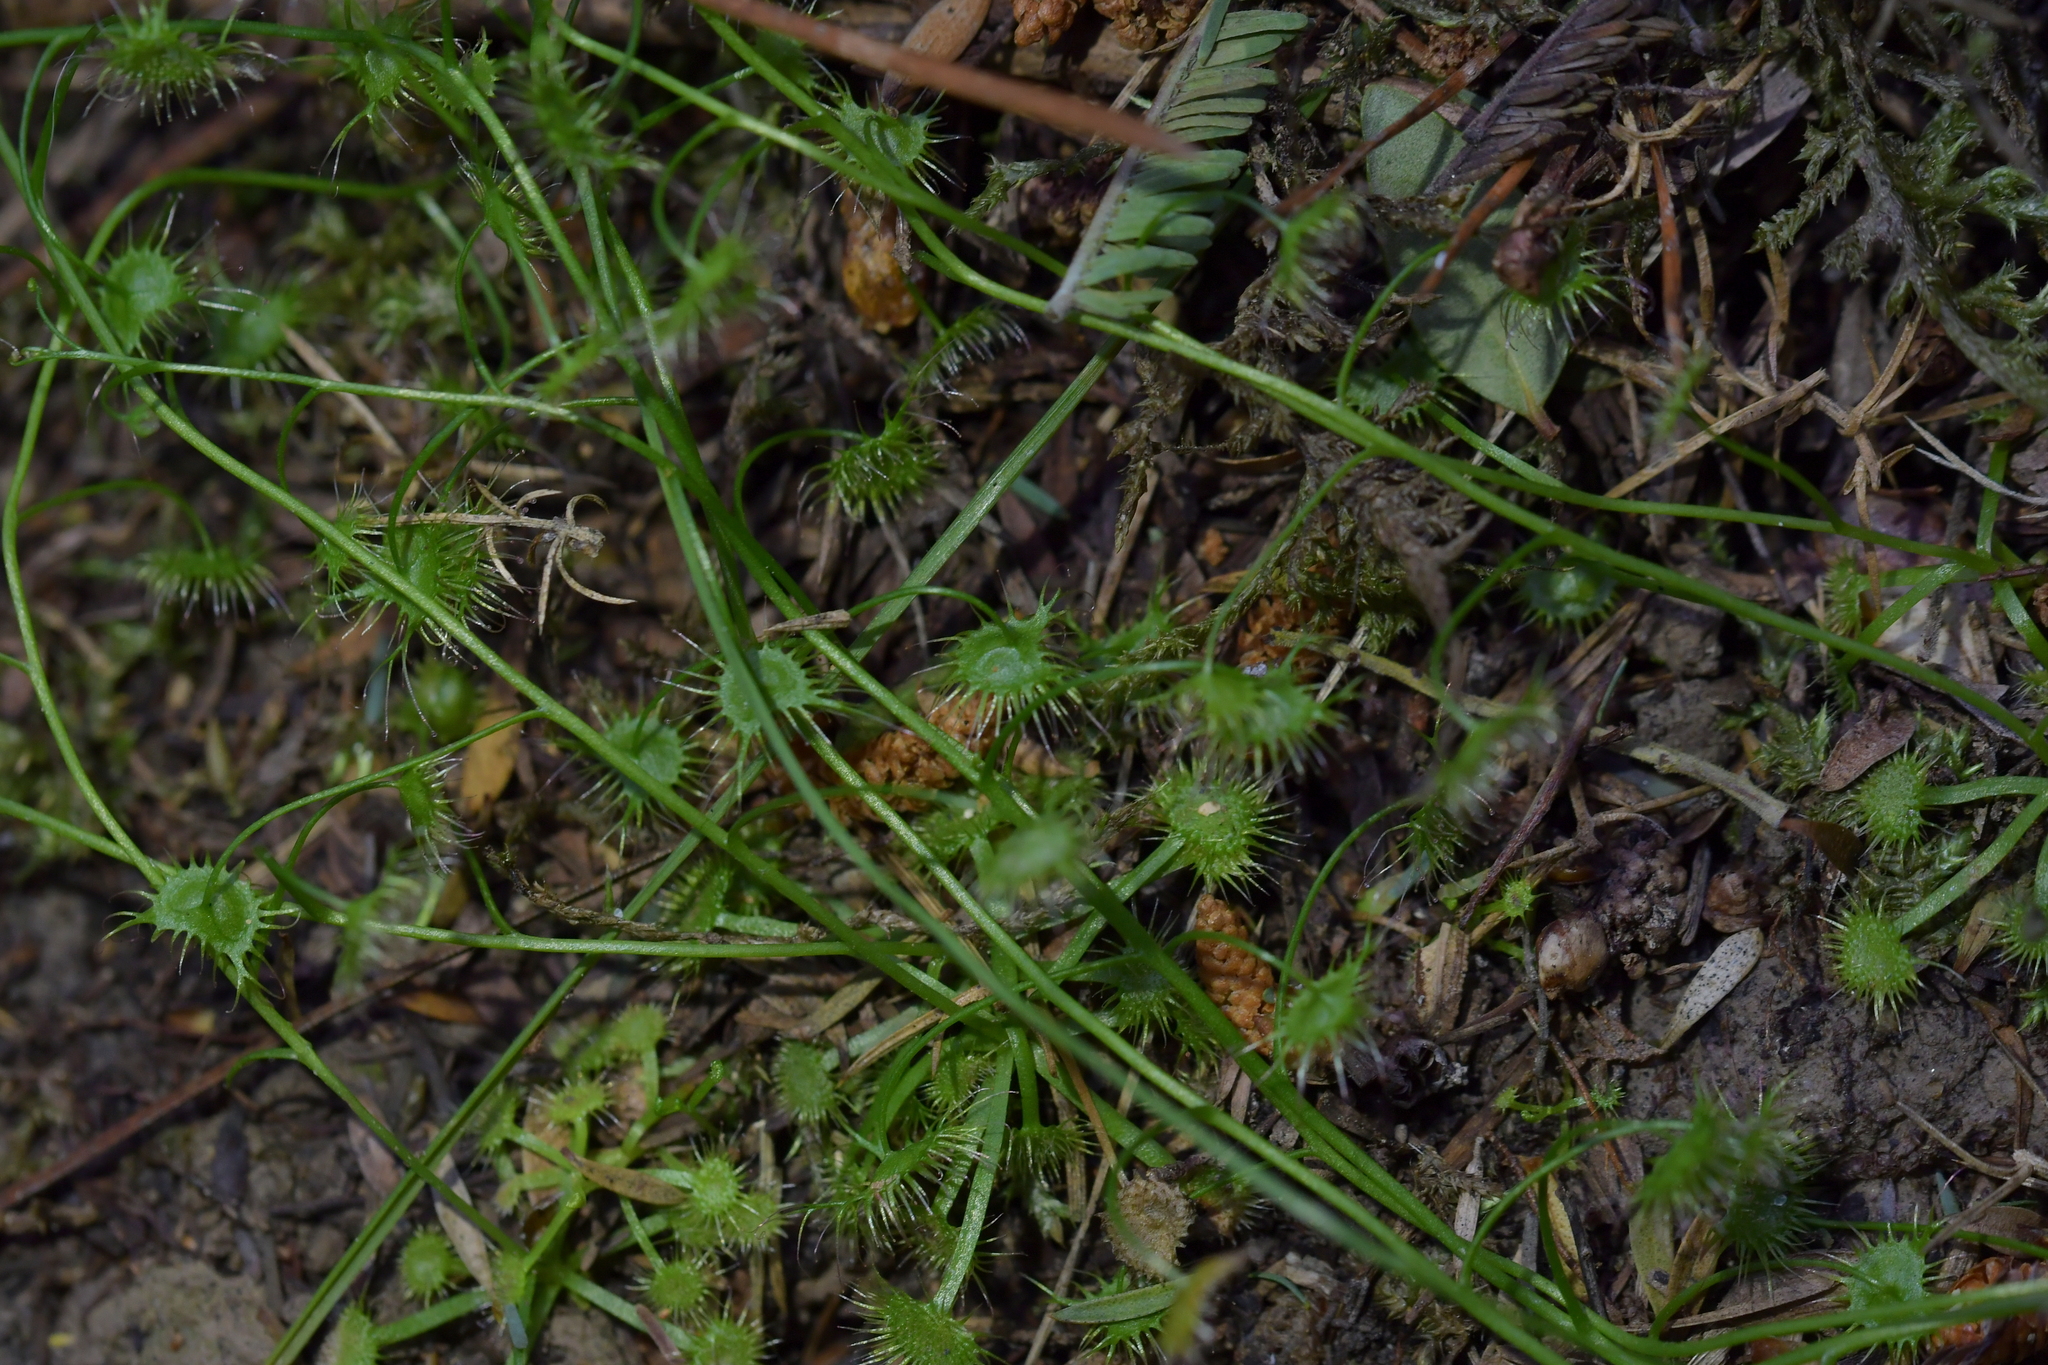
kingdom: Plantae
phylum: Tracheophyta
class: Magnoliopsida
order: Caryophyllales
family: Droseraceae
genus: Drosera
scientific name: Drosera peltata
